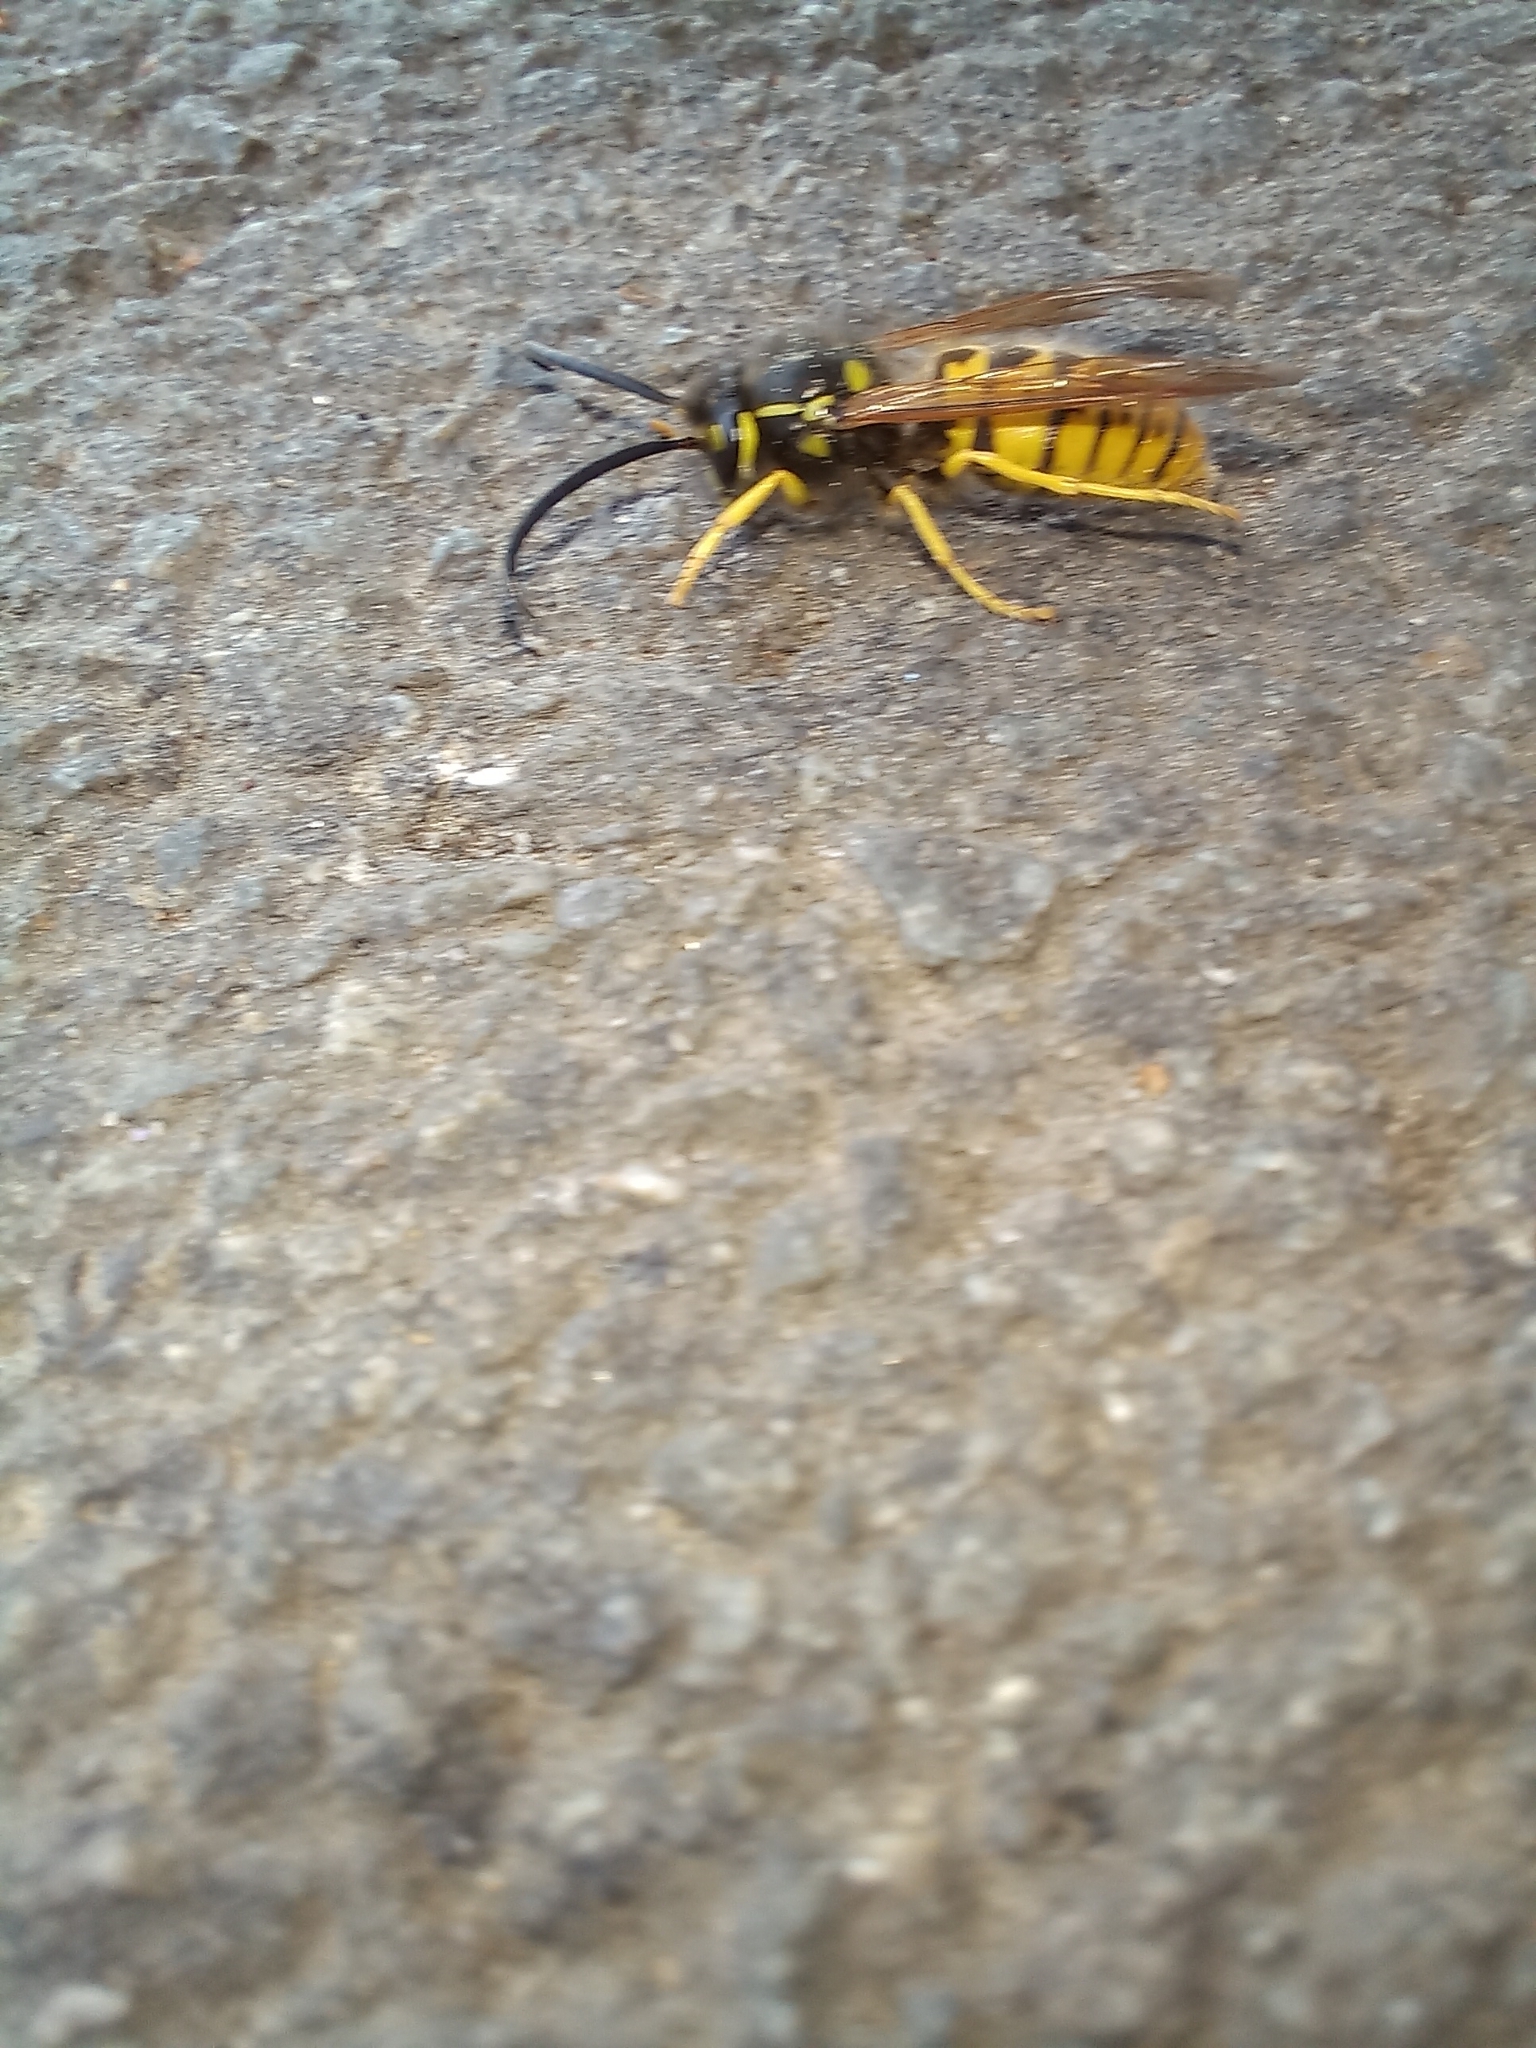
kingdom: Animalia
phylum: Arthropoda
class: Insecta
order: Hymenoptera
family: Vespidae
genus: Vespula
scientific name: Vespula germanica
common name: German wasp
